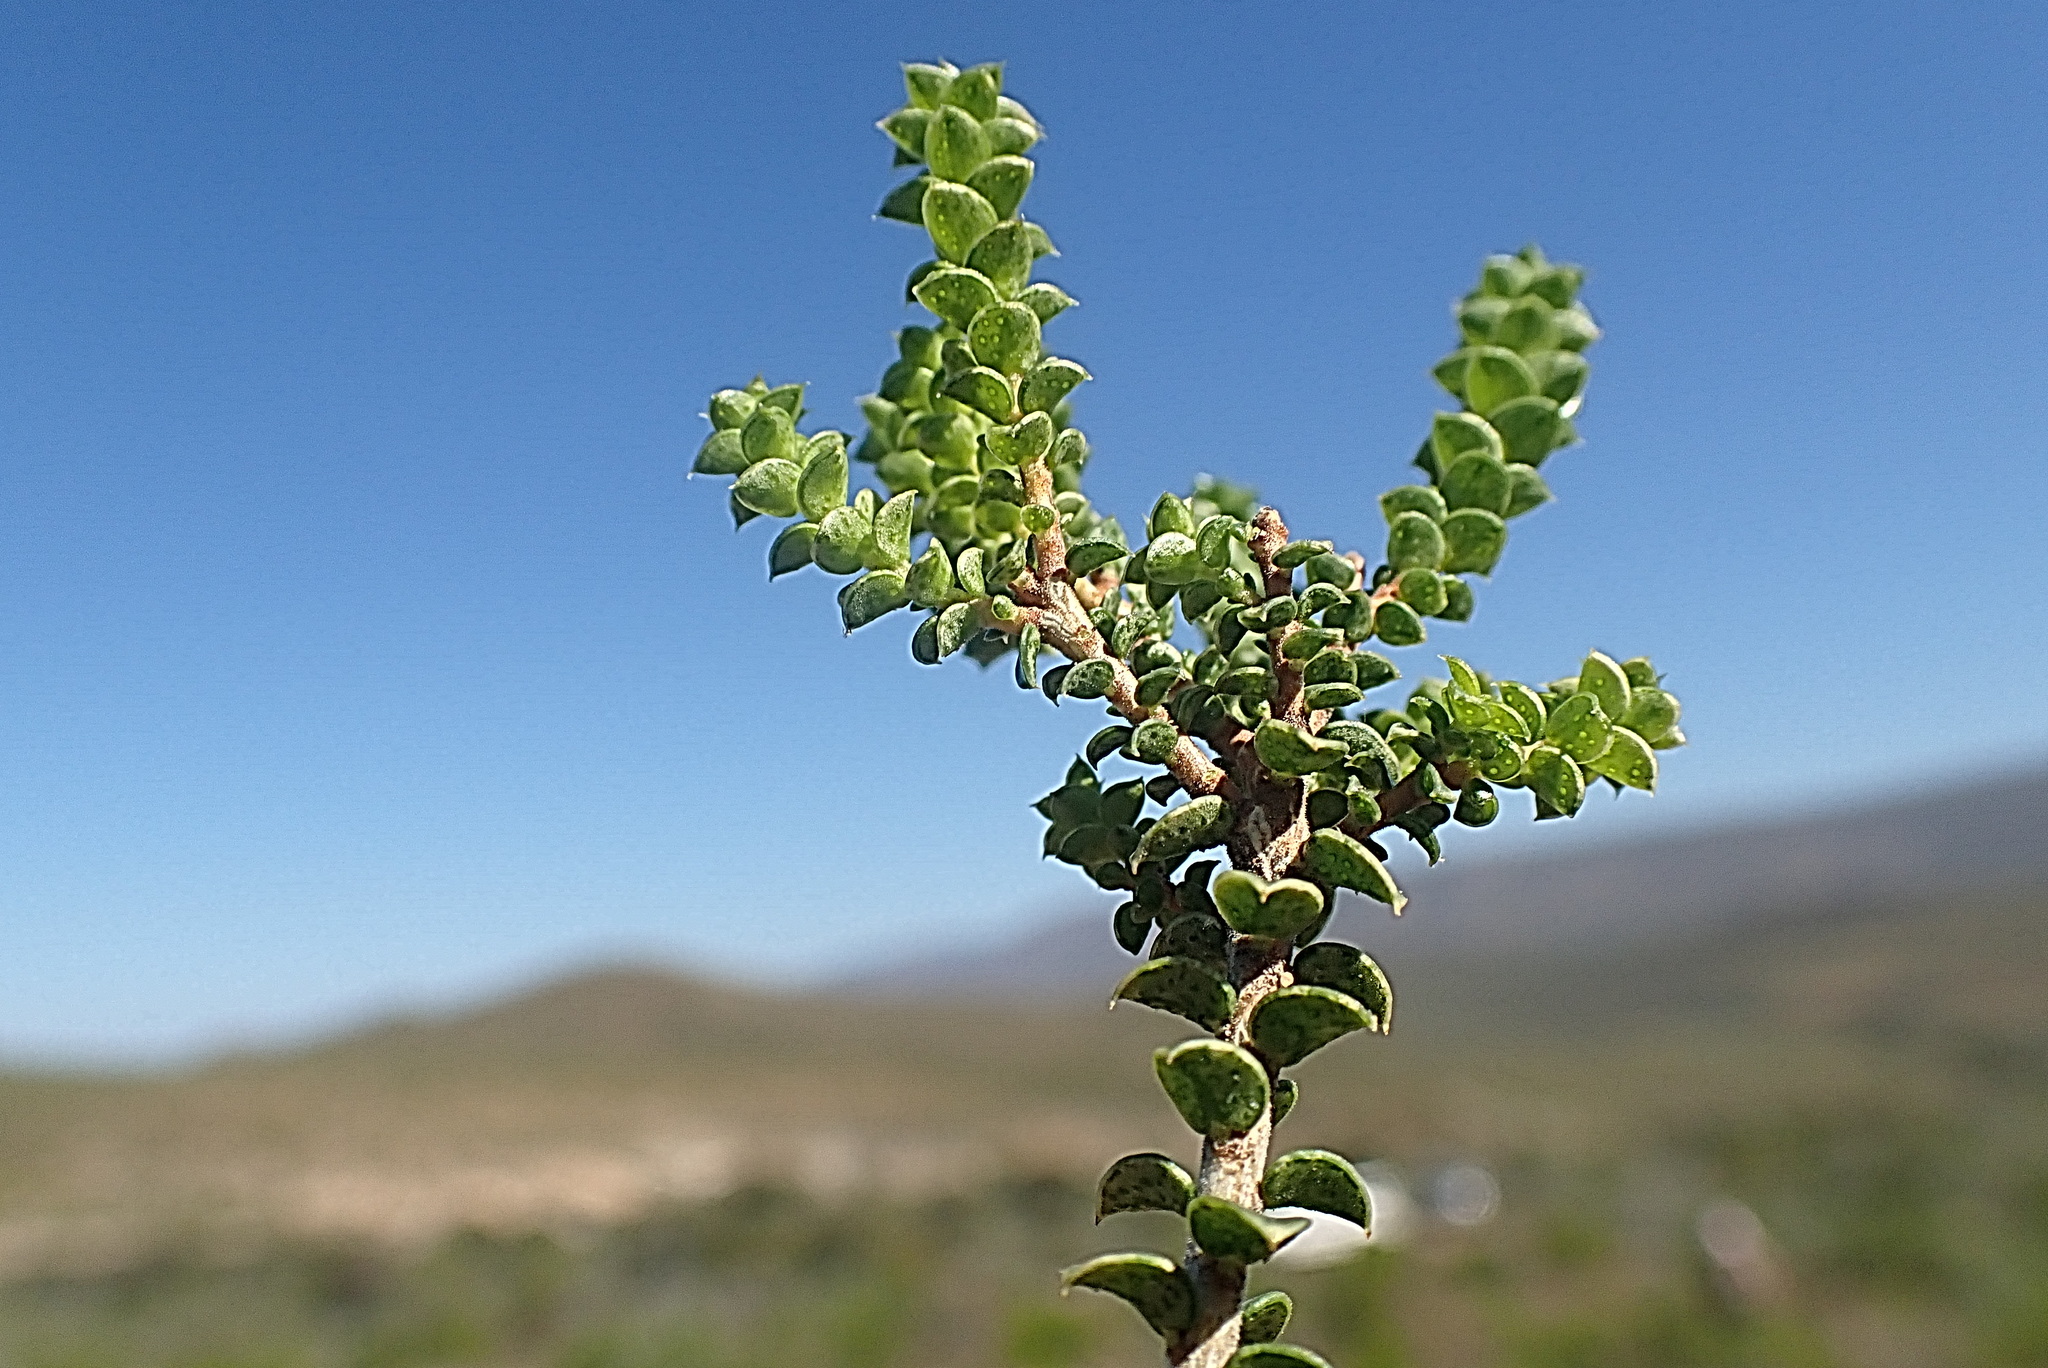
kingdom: Plantae
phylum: Tracheophyta
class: Magnoliopsida
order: Sapindales
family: Rutaceae
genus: Agathosma
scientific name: Agathosma recurvifolia
